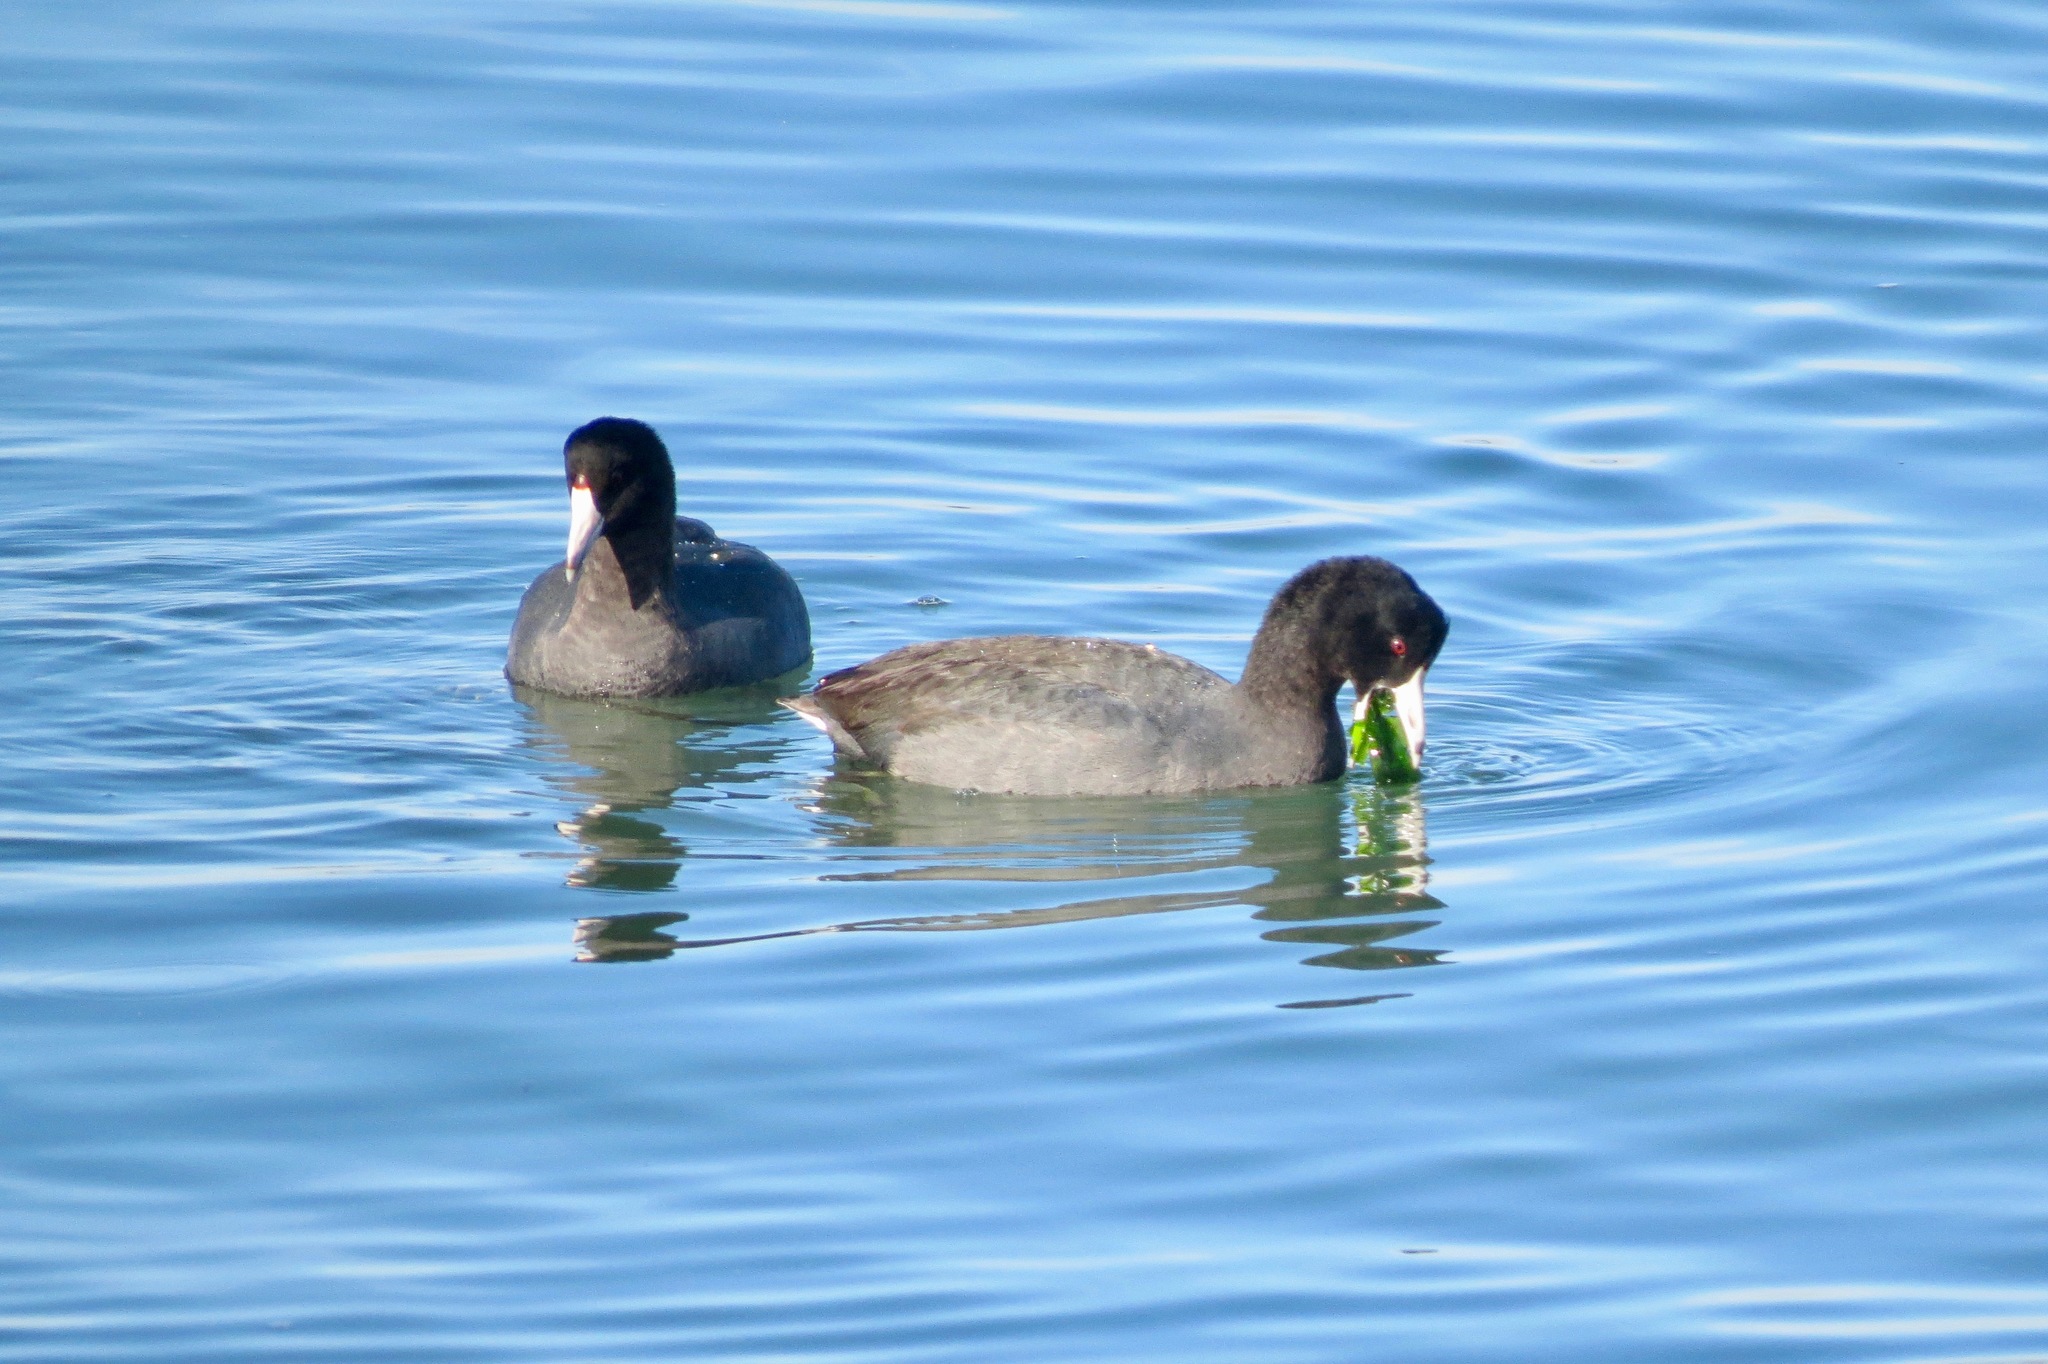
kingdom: Animalia
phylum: Chordata
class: Aves
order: Gruiformes
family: Rallidae
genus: Fulica
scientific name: Fulica americana
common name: American coot
